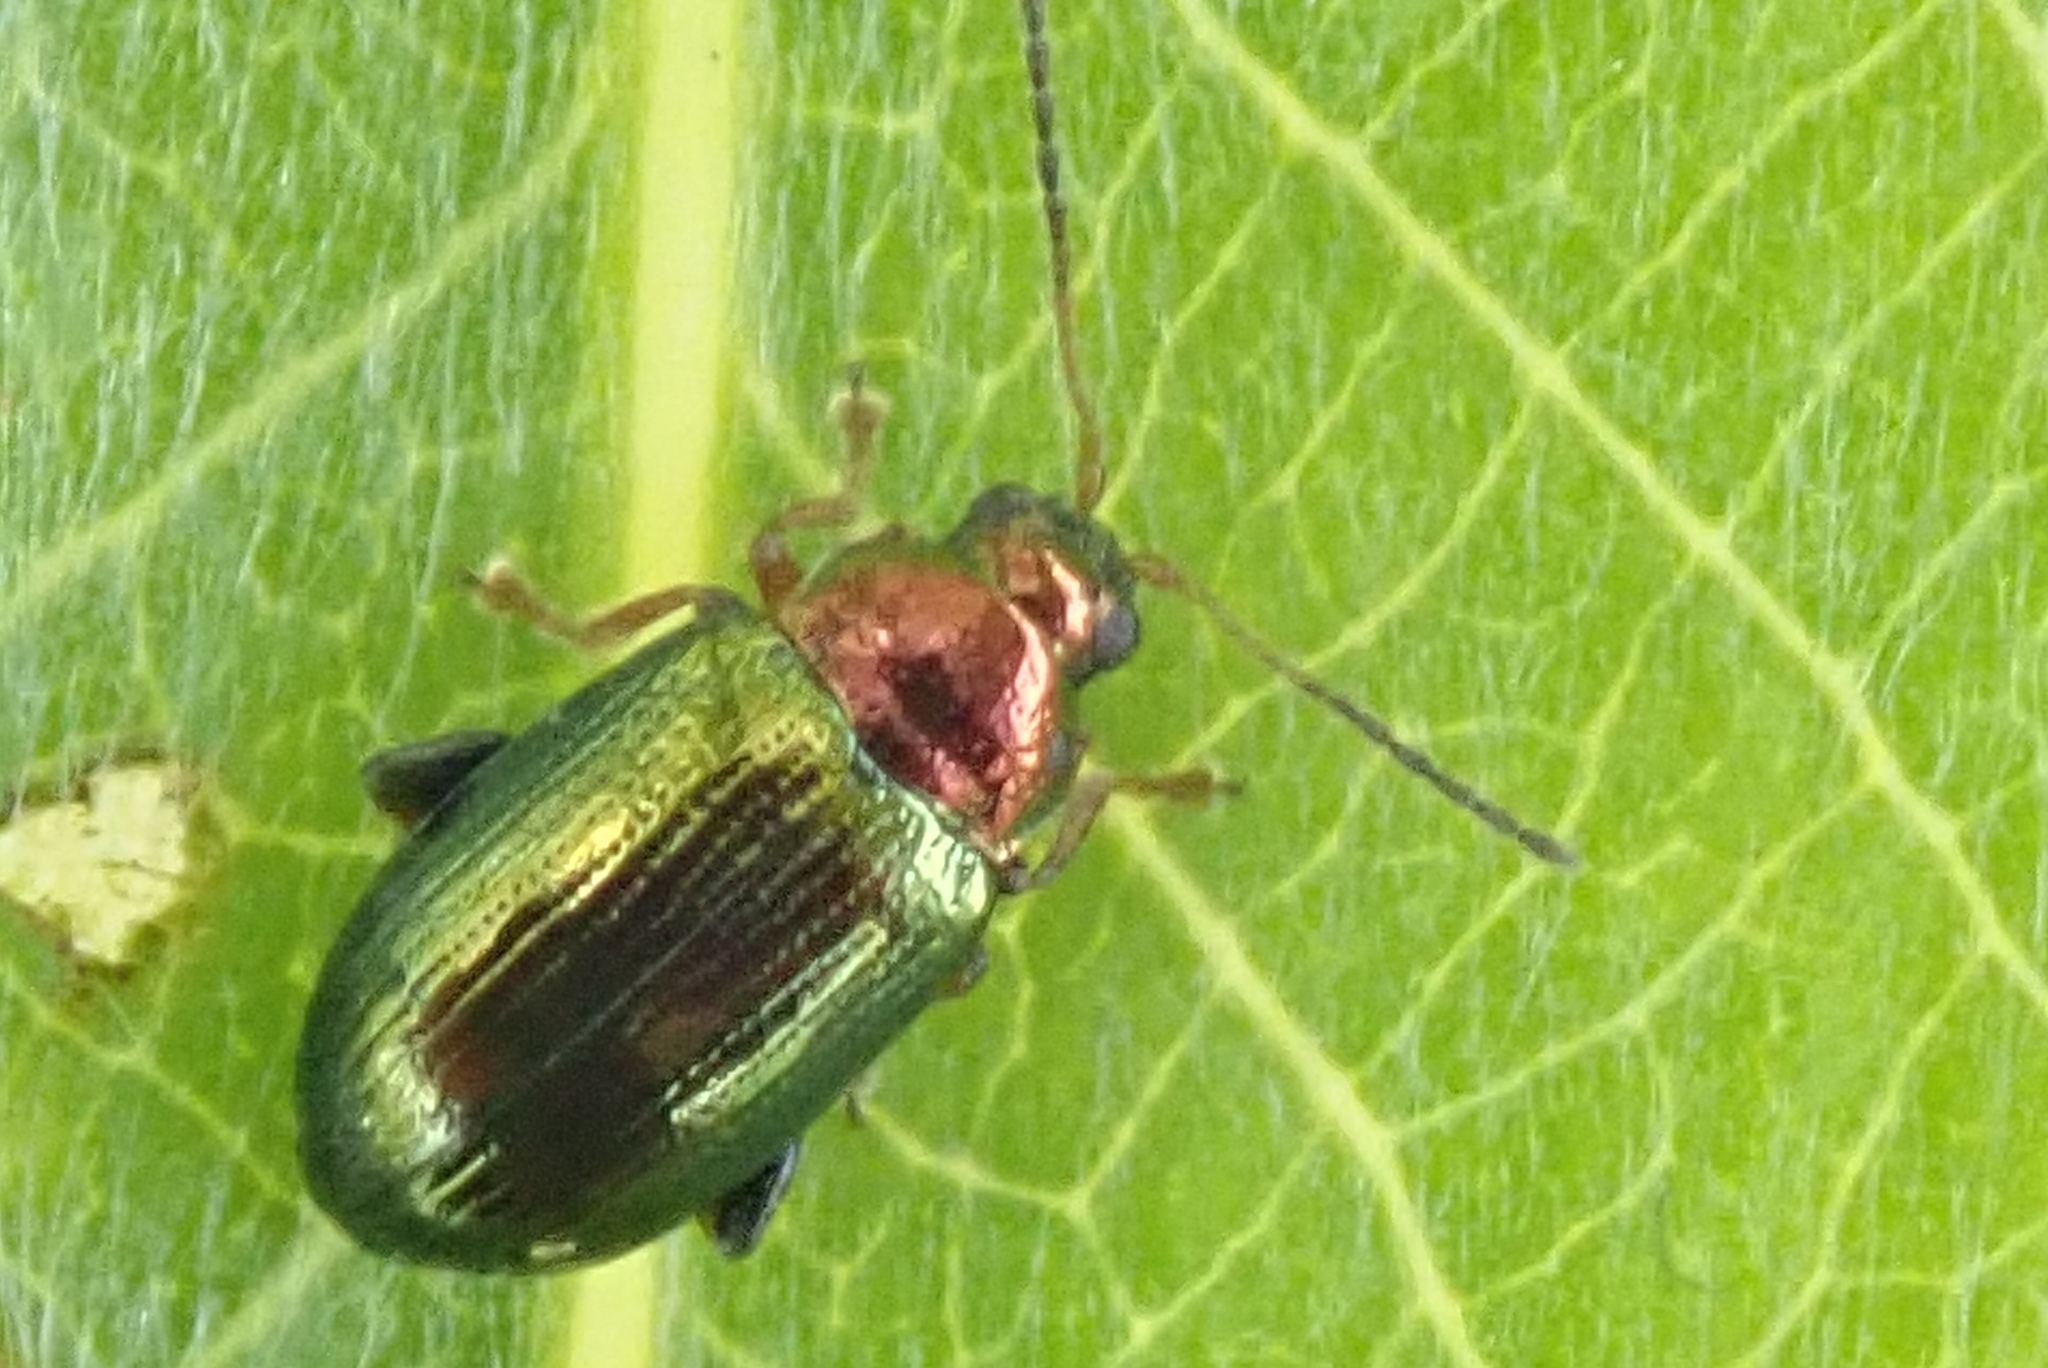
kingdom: Animalia
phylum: Arthropoda
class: Insecta
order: Coleoptera
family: Chrysomelidae
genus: Crepidodera
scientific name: Crepidodera aurata
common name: Willow flea beetle
